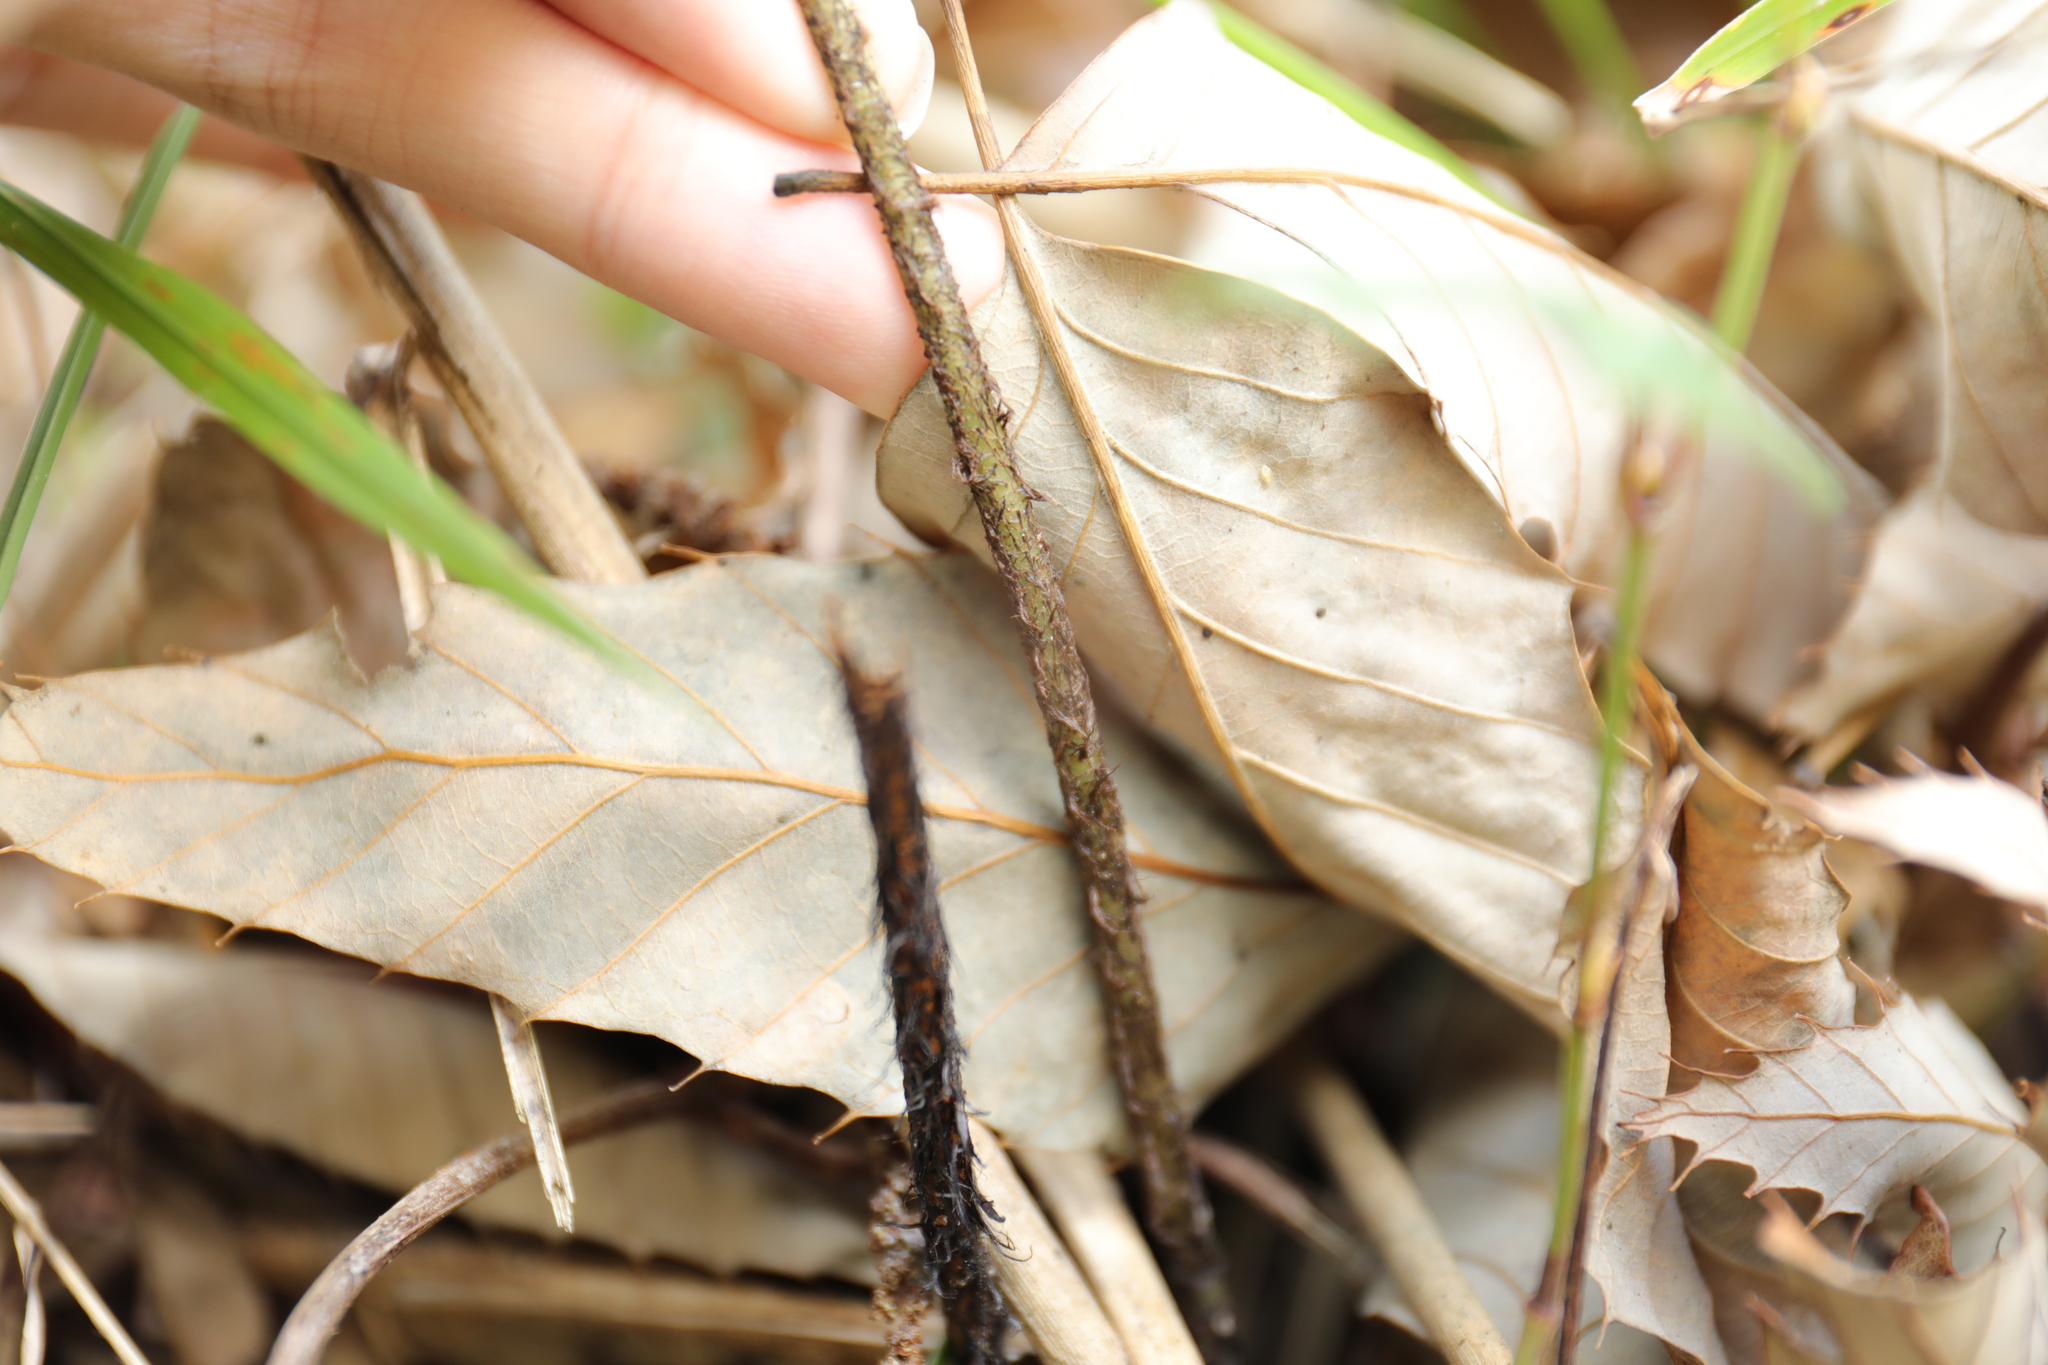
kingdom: Plantae
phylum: Tracheophyta
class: Polypodiopsida
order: Polypodiales
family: Dryopteridaceae
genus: Dryopteris
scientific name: Dryopteris cycadina
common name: Shaggy wood fern
